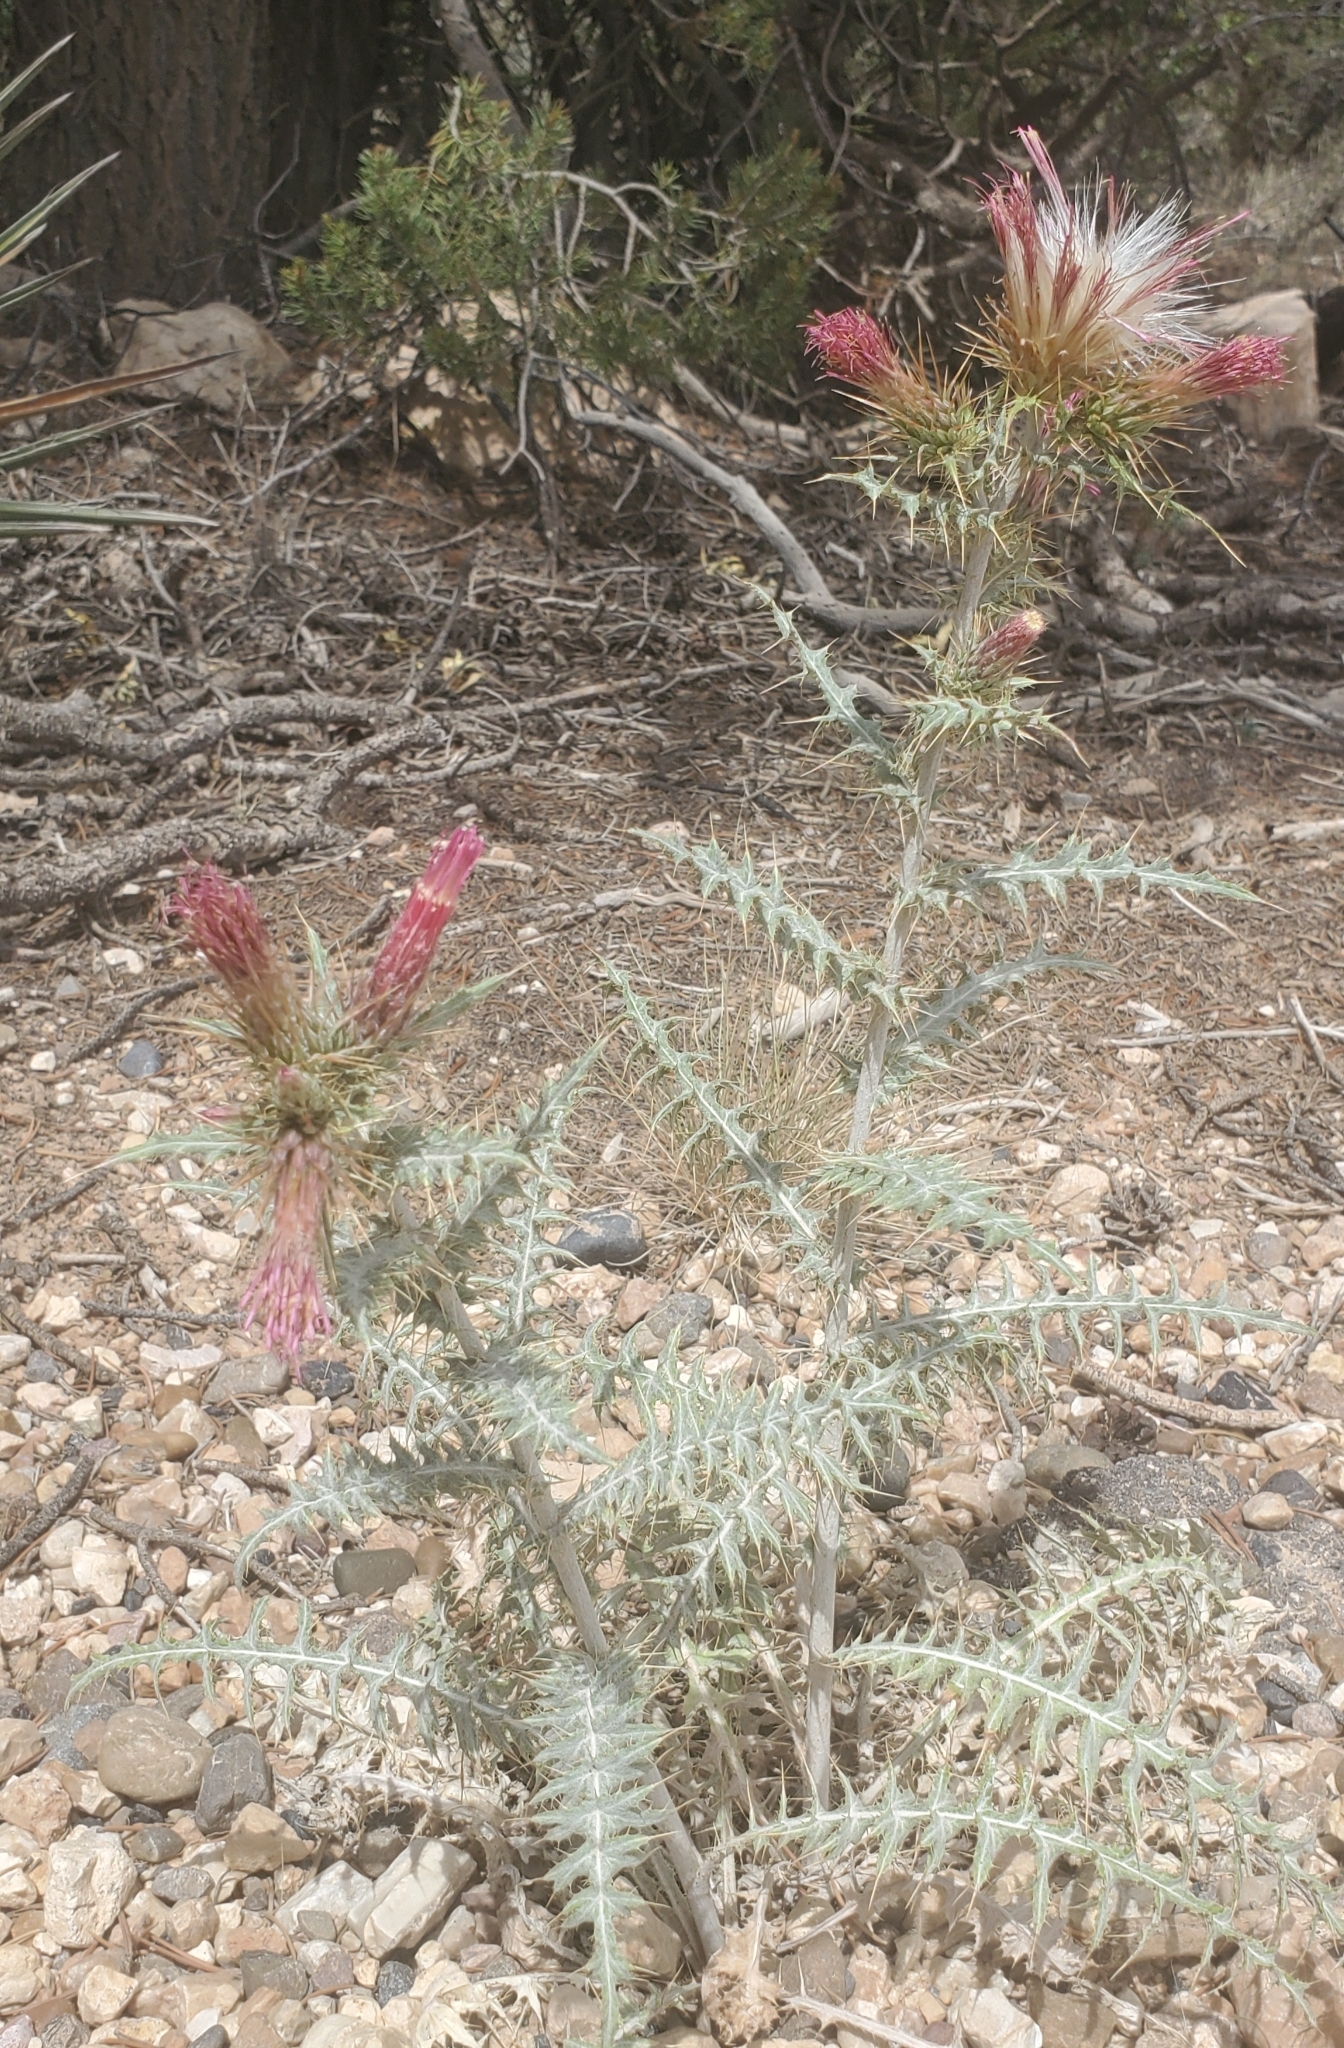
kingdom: Plantae
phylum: Tracheophyta
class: Magnoliopsida
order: Asterales
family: Asteraceae
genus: Cirsium
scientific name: Cirsium arizonicum
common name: Arizona thistle
